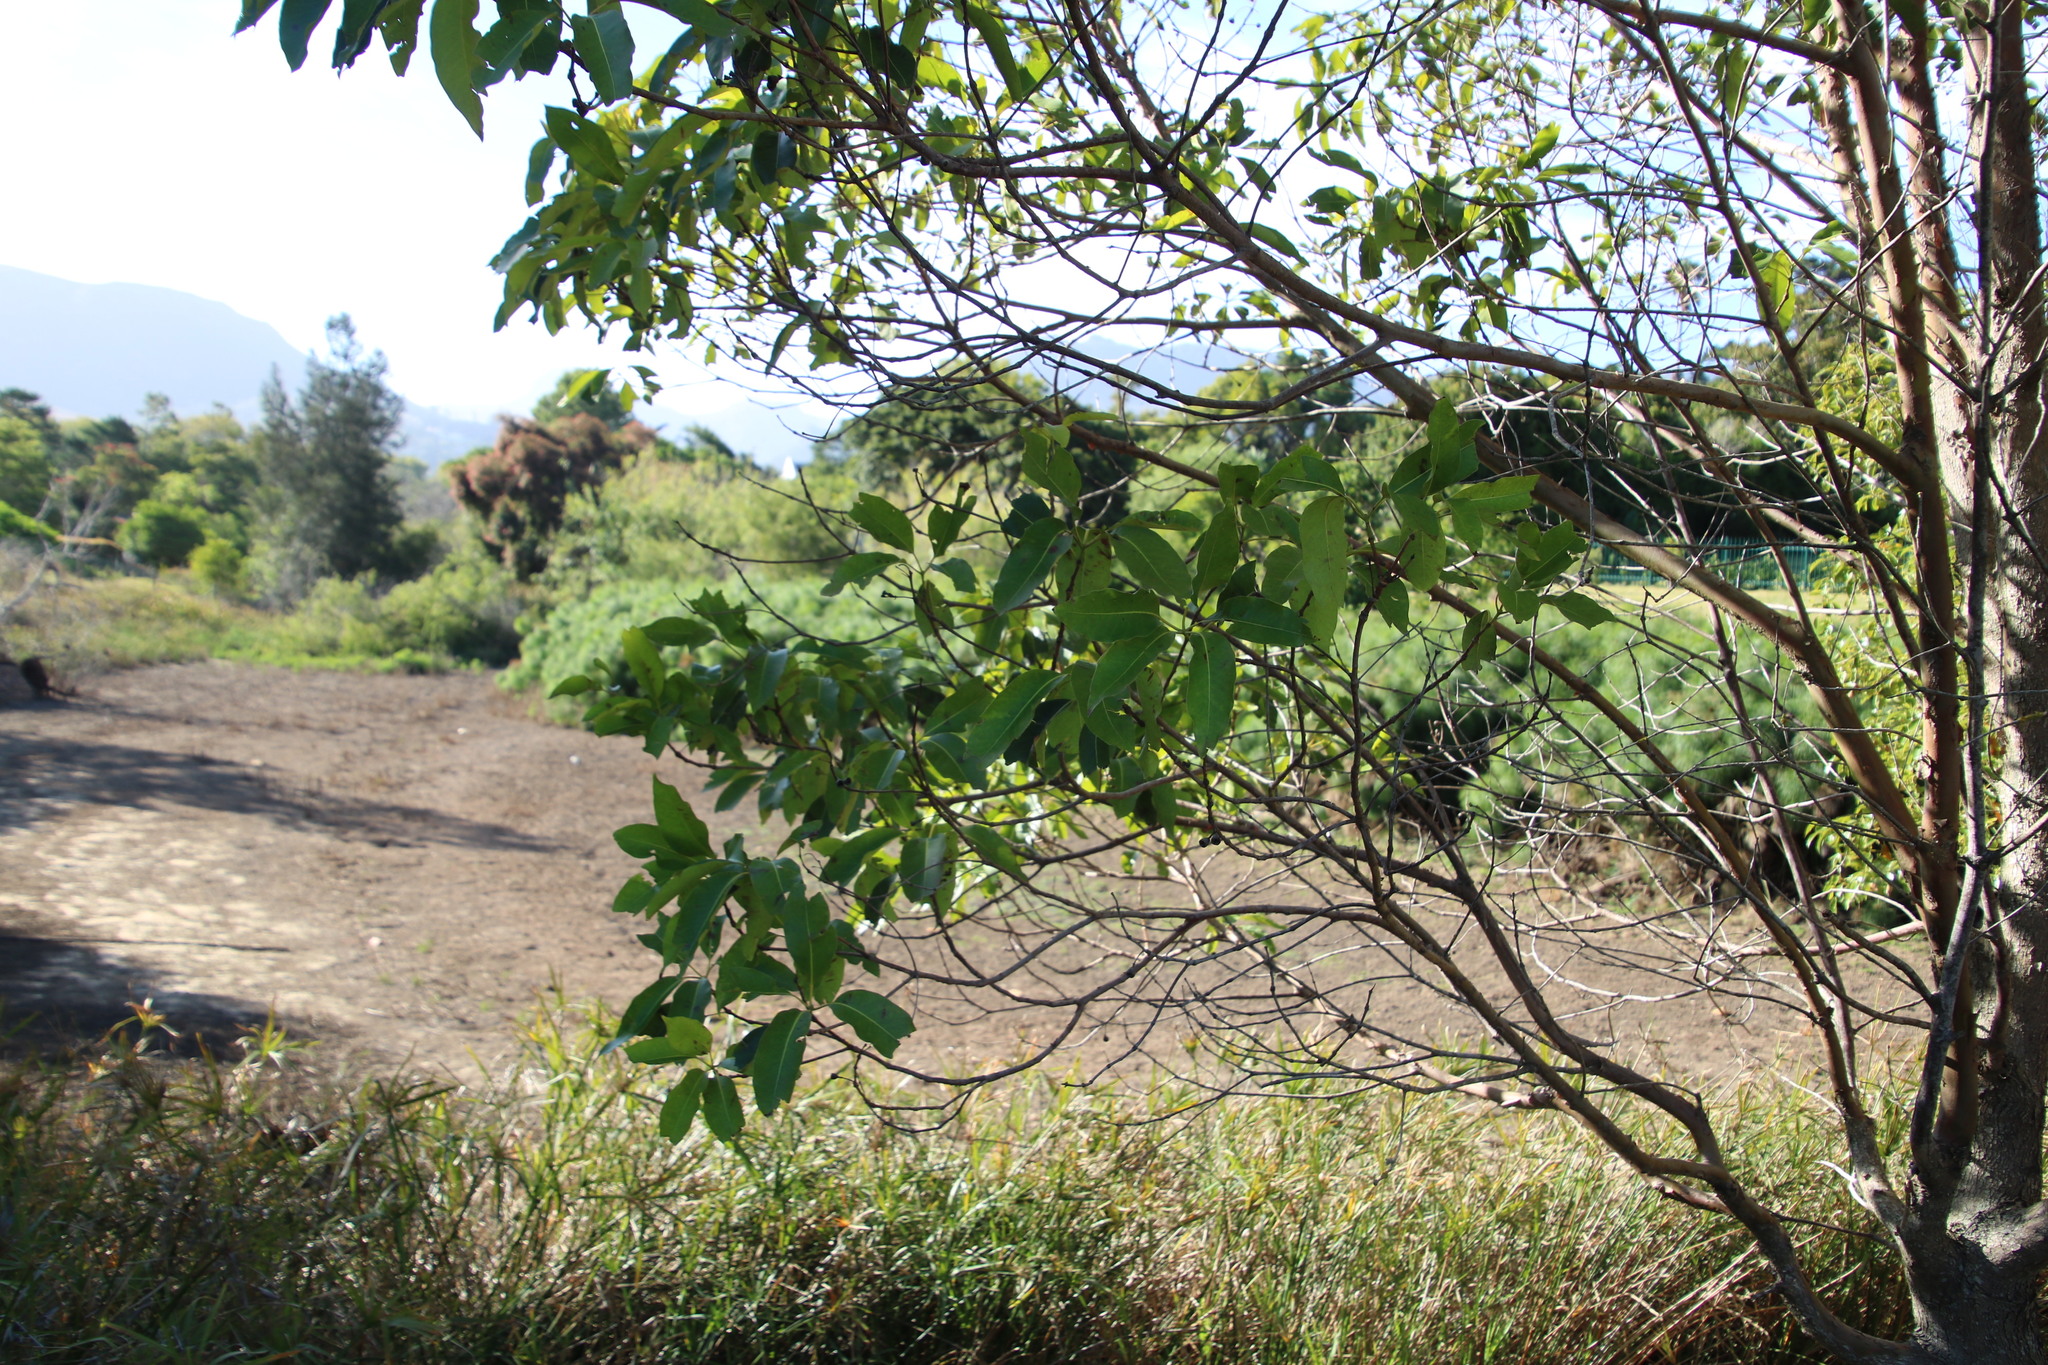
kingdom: Plantae
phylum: Tracheophyta
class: Magnoliopsida
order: Laurales
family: Lauraceae
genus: Cinnamomum
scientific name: Cinnamomum camphora
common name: Camphortree
